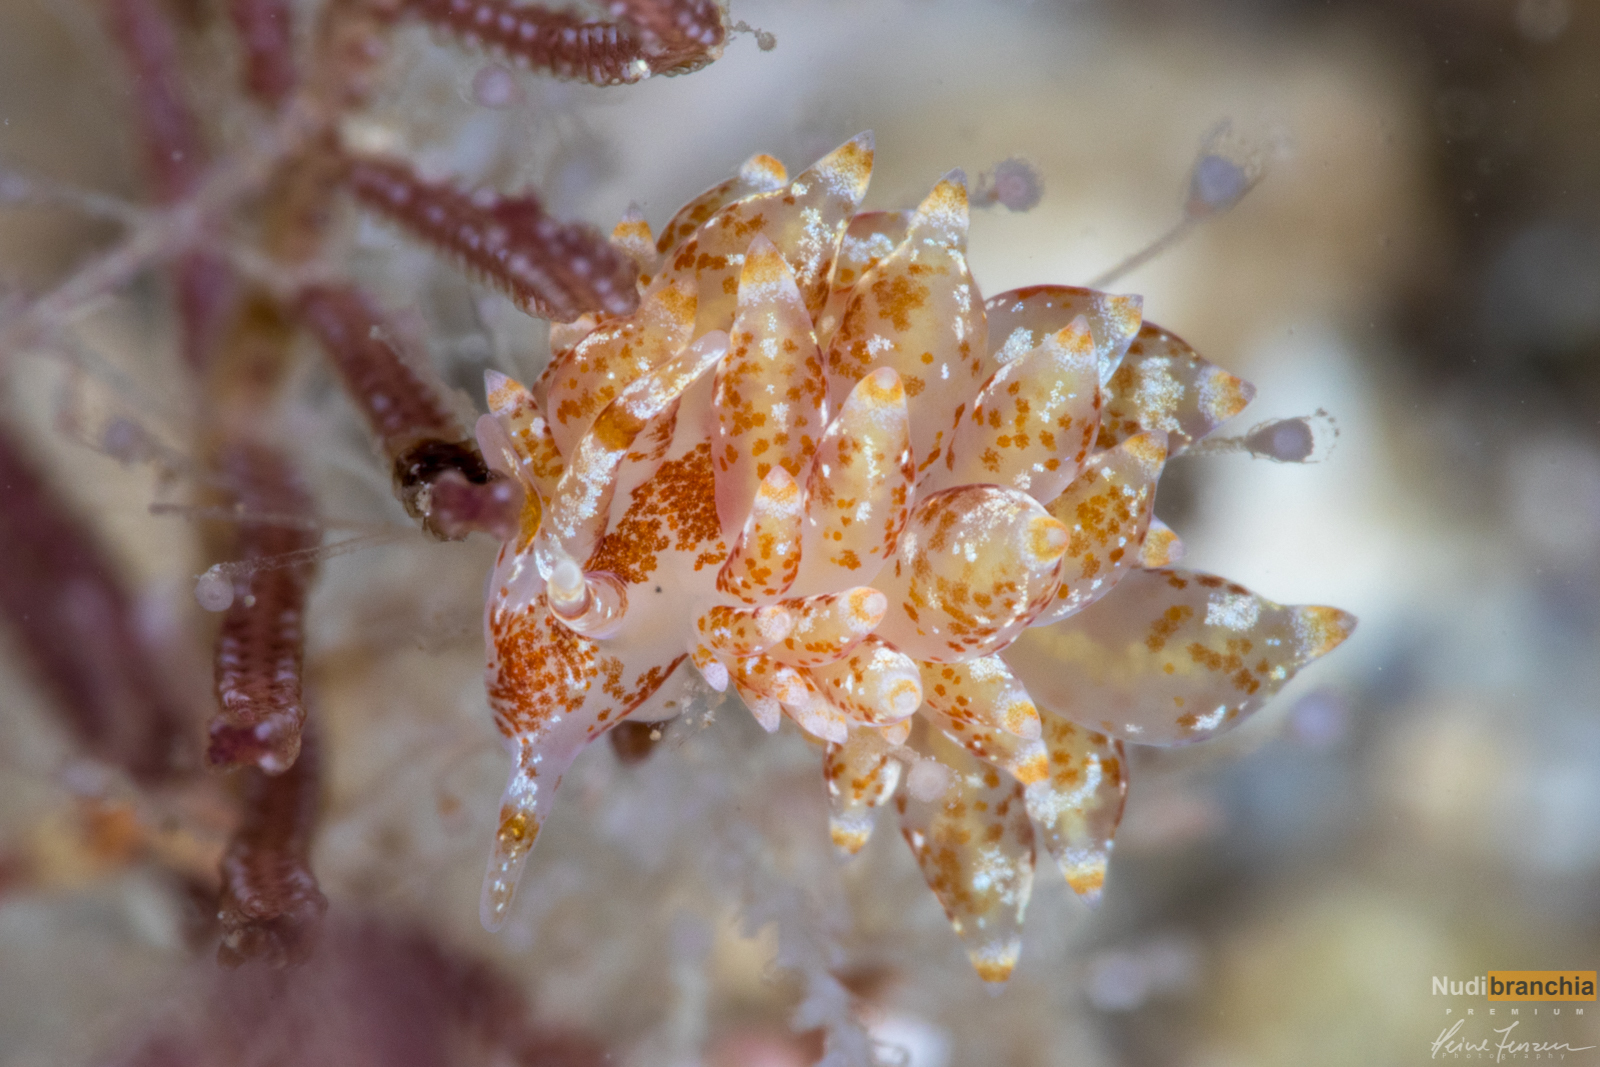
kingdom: Animalia
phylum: Mollusca
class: Gastropoda
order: Nudibranchia
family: Eubranchidae
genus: Amphorina
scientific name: Amphorina pallida
